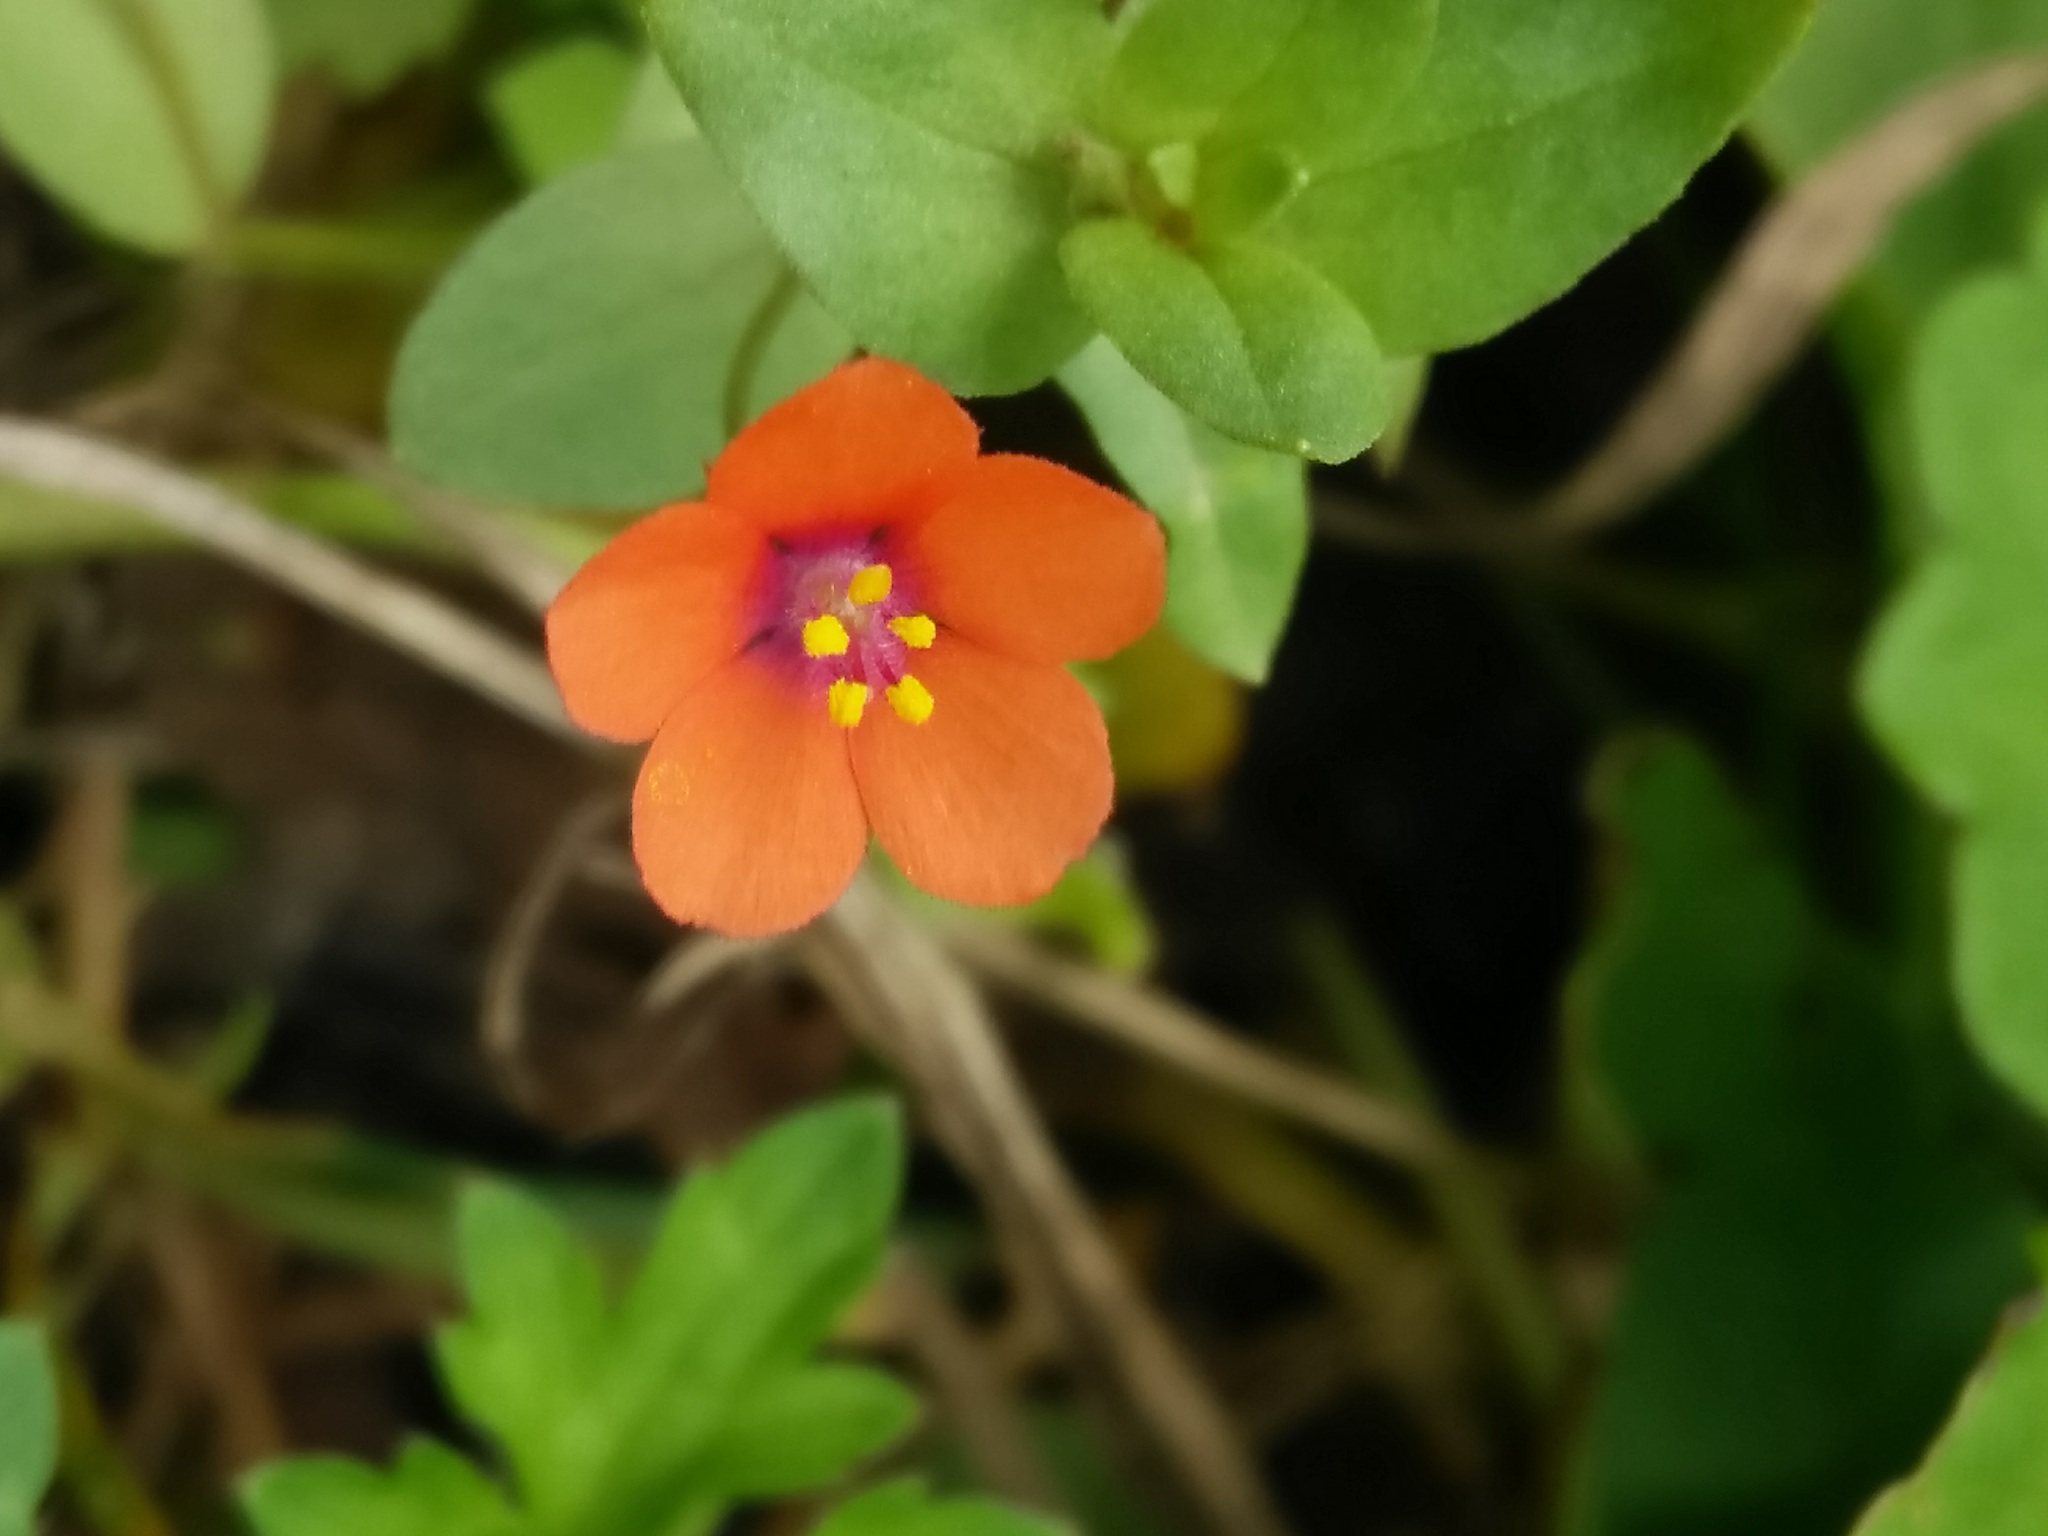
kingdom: Plantae
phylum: Tracheophyta
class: Magnoliopsida
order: Ericales
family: Primulaceae
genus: Lysimachia
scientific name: Lysimachia arvensis
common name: Scarlet pimpernel
